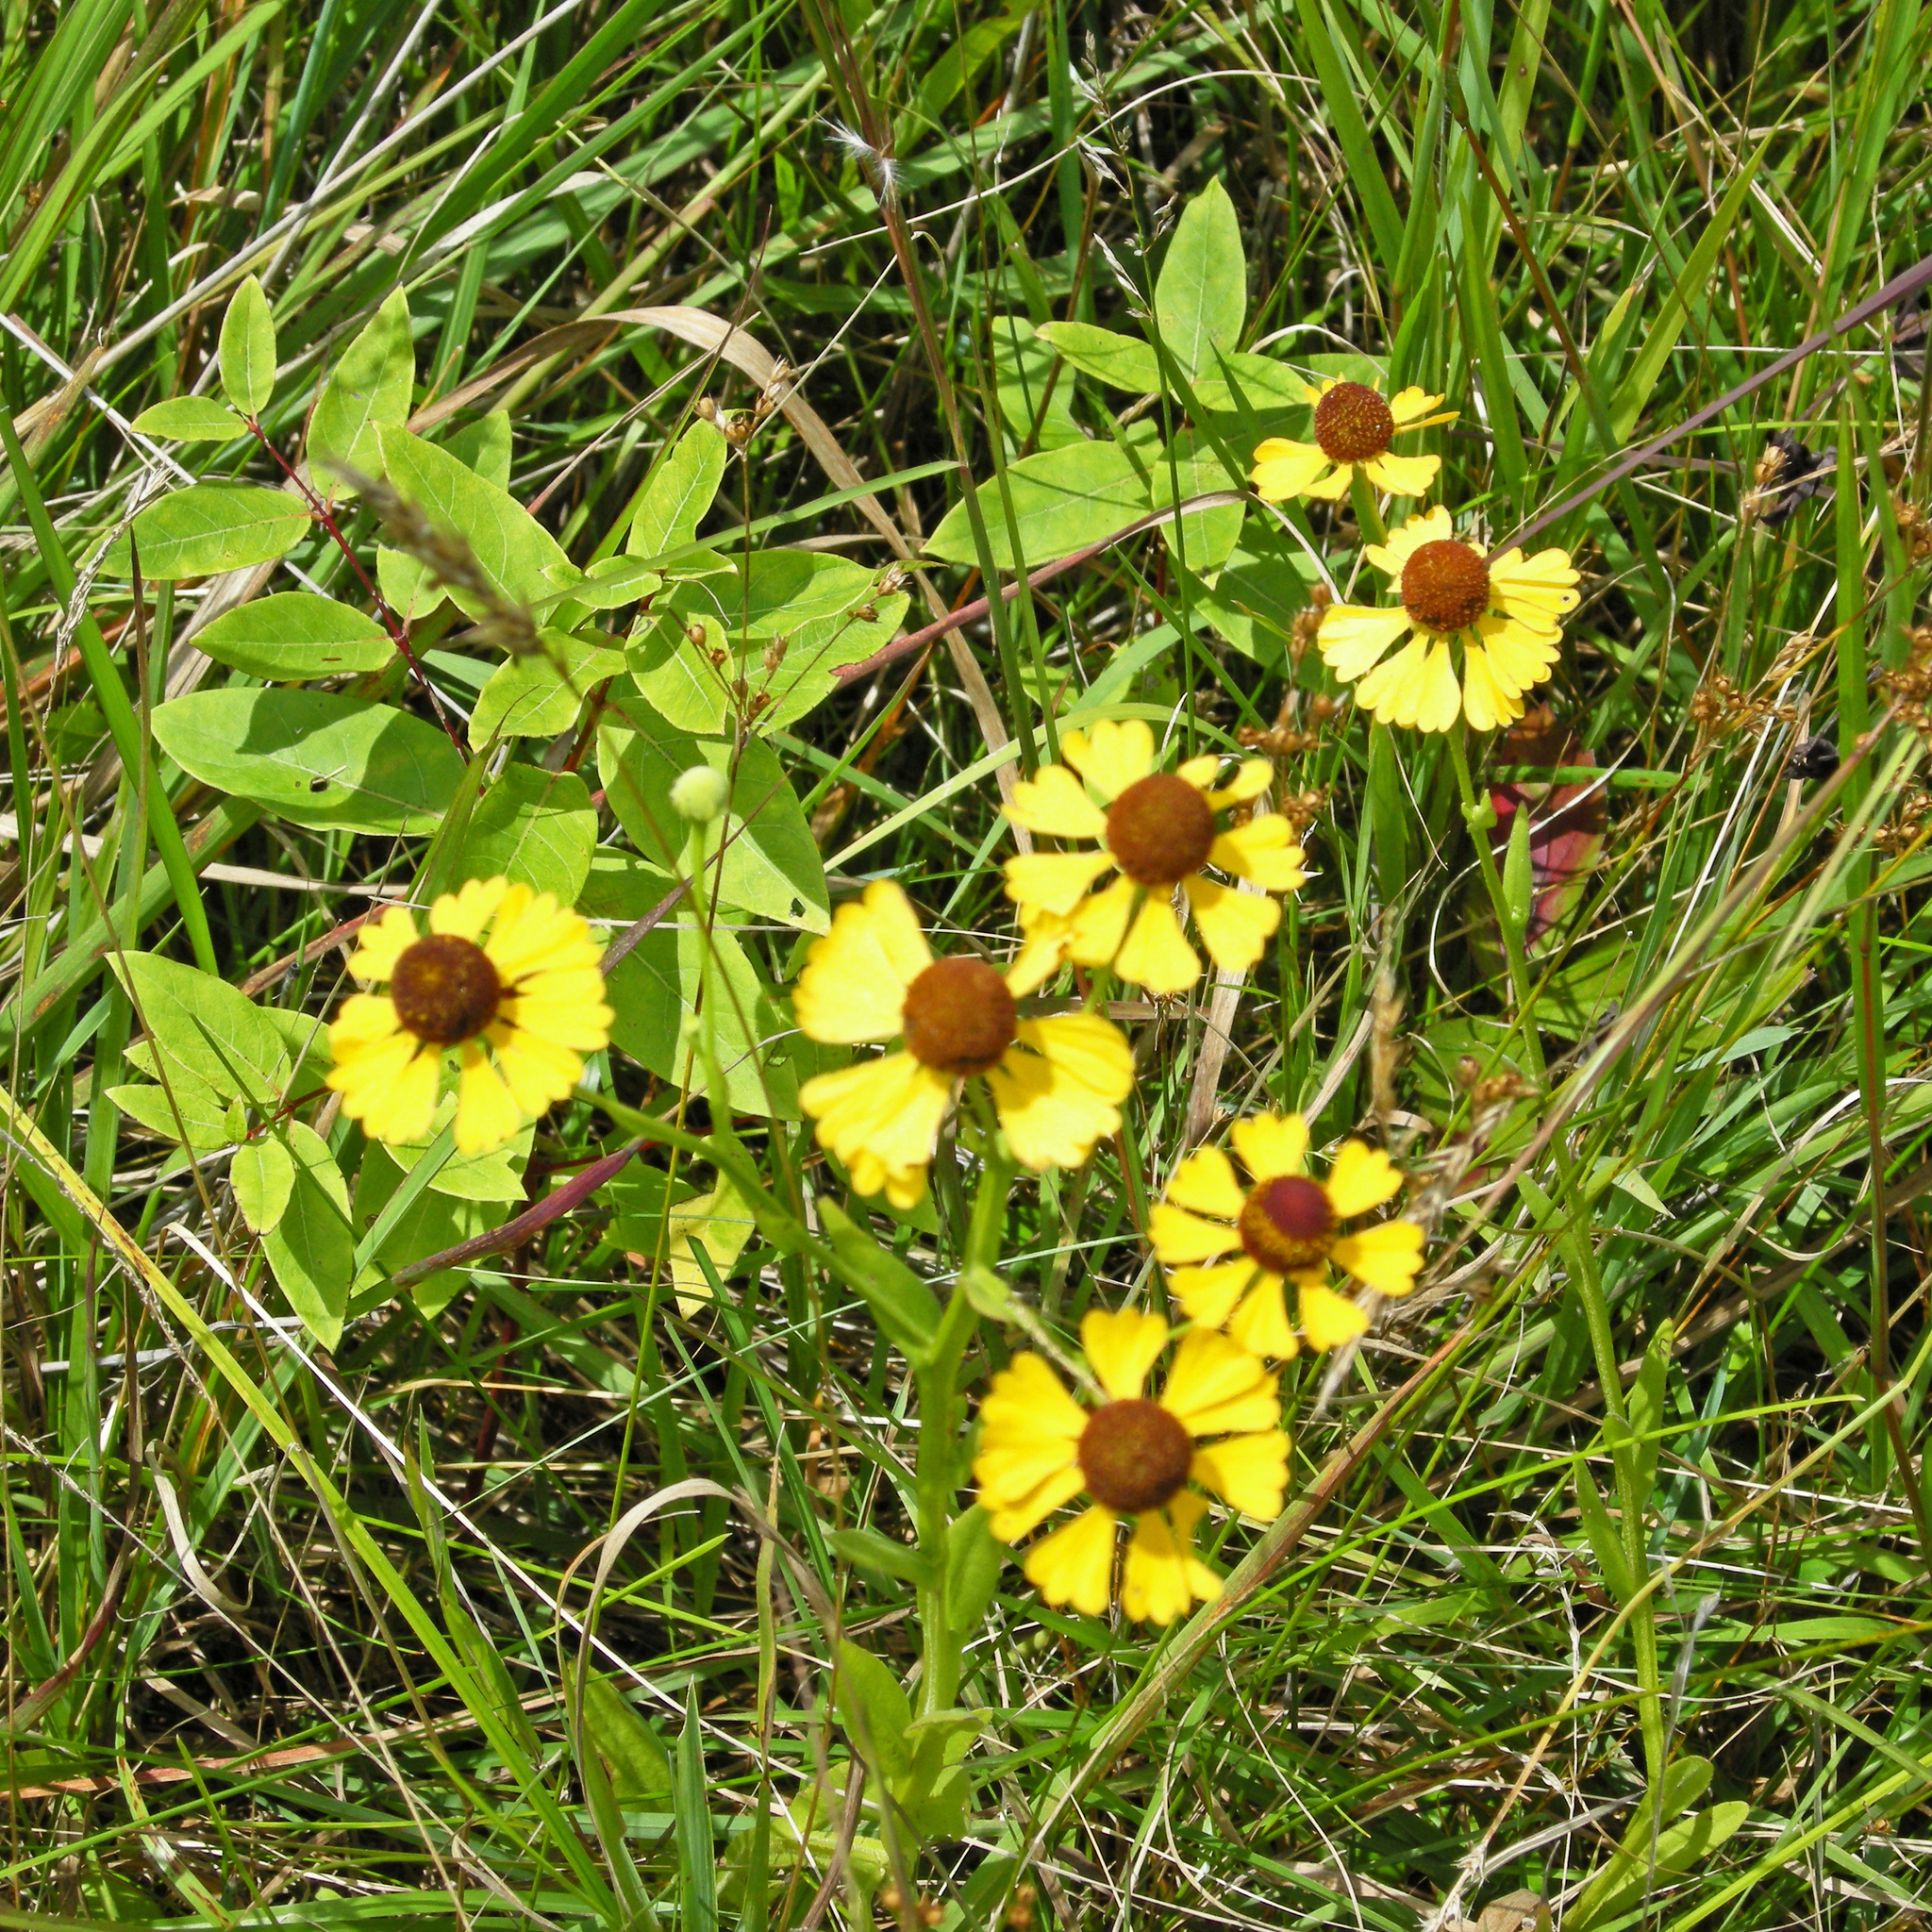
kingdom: Plantae
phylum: Tracheophyta
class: Magnoliopsida
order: Asterales
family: Asteraceae
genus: Helenium
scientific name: Helenium flexuosum
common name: Naked-flowered sneezeweed
